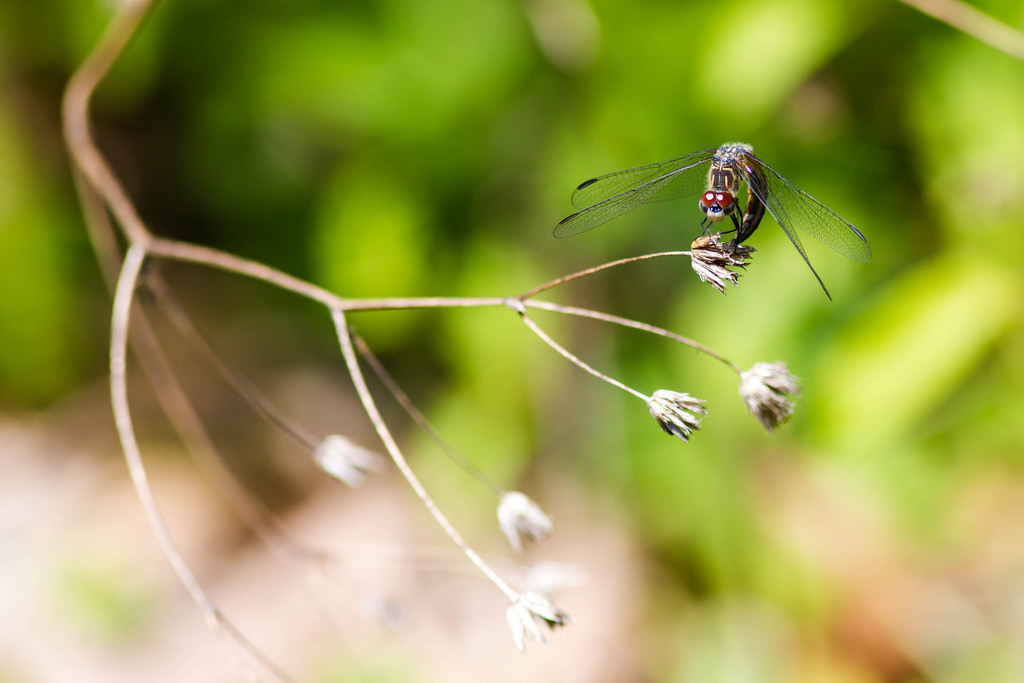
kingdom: Animalia
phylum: Arthropoda
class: Insecta
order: Odonata
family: Libellulidae
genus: Pachydiplax
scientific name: Pachydiplax longipennis
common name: Blue dasher
